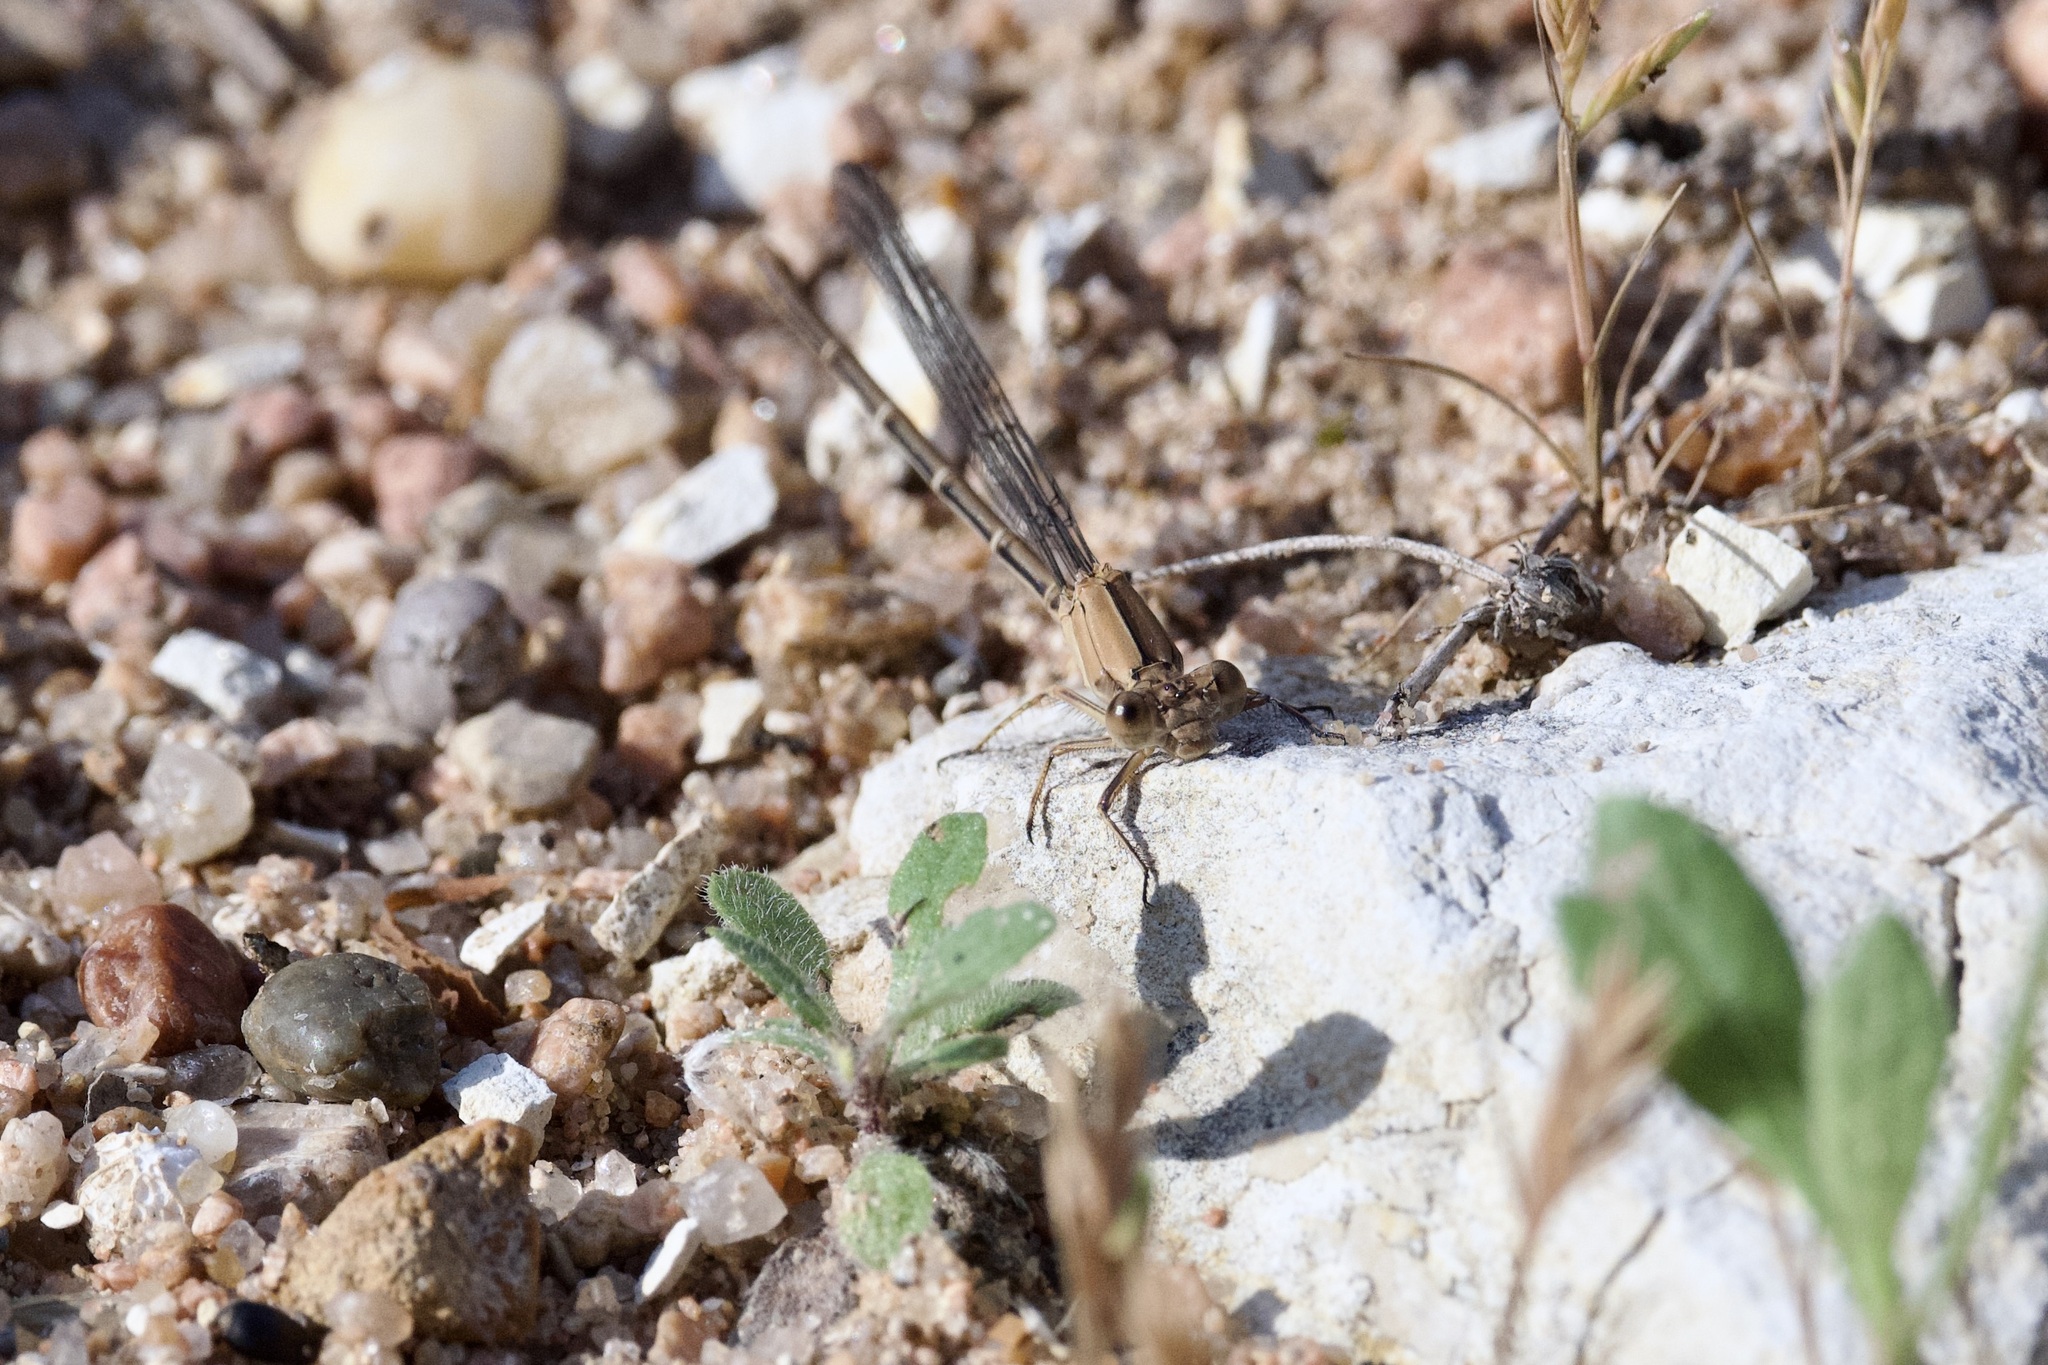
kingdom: Animalia
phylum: Arthropoda
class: Insecta
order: Odonata
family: Coenagrionidae
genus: Argia
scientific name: Argia moesta
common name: Powdered dancer
